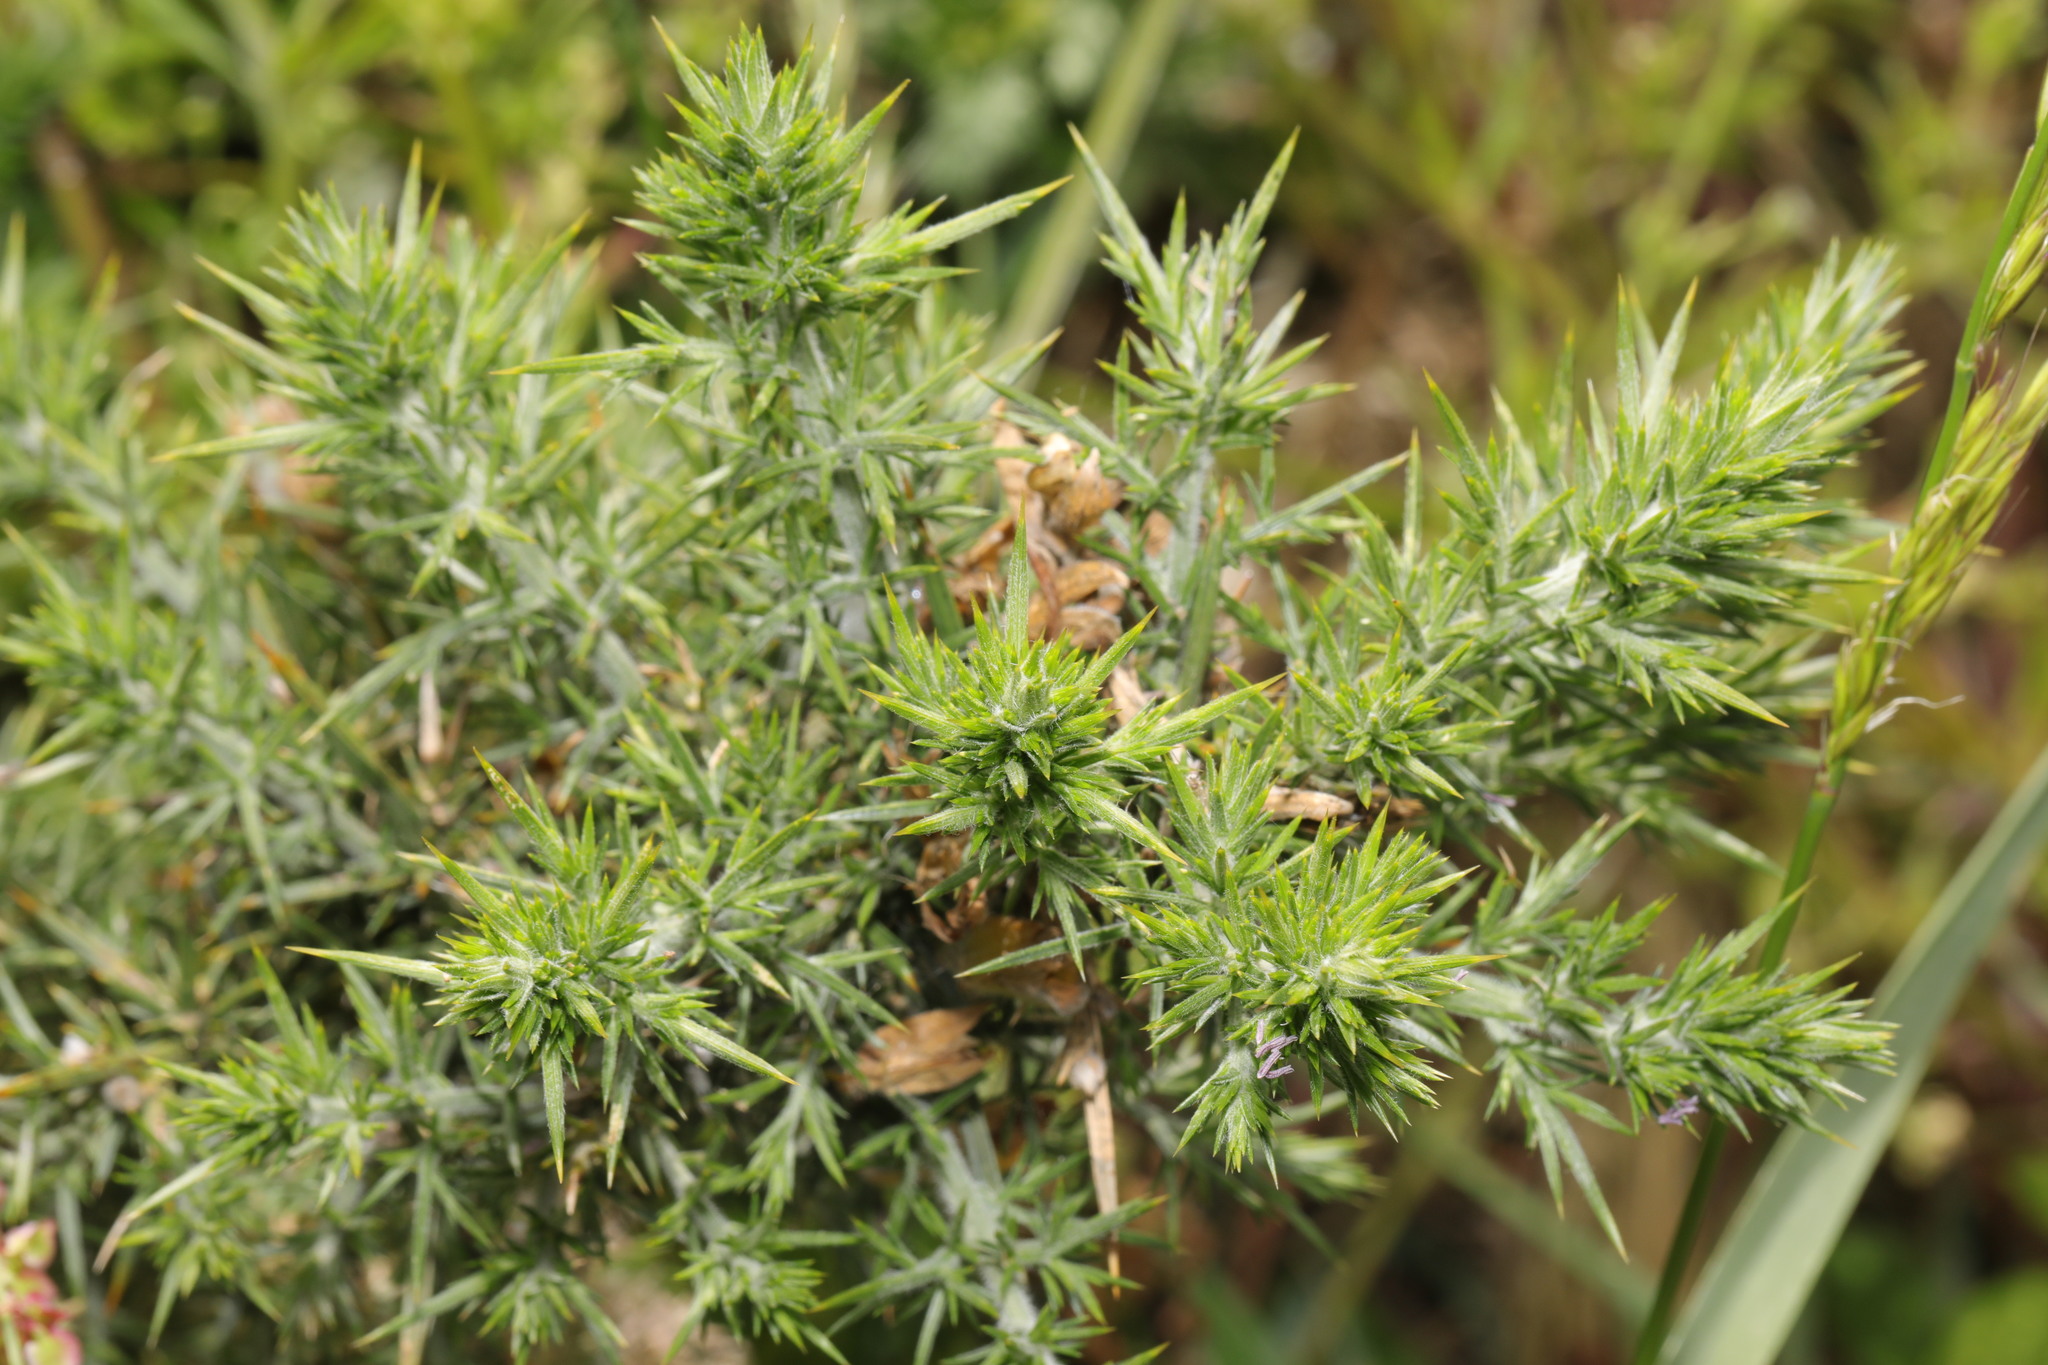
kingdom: Plantae
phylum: Tracheophyta
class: Magnoliopsida
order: Fabales
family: Fabaceae
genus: Ulex
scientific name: Ulex europaeus
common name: Common gorse
